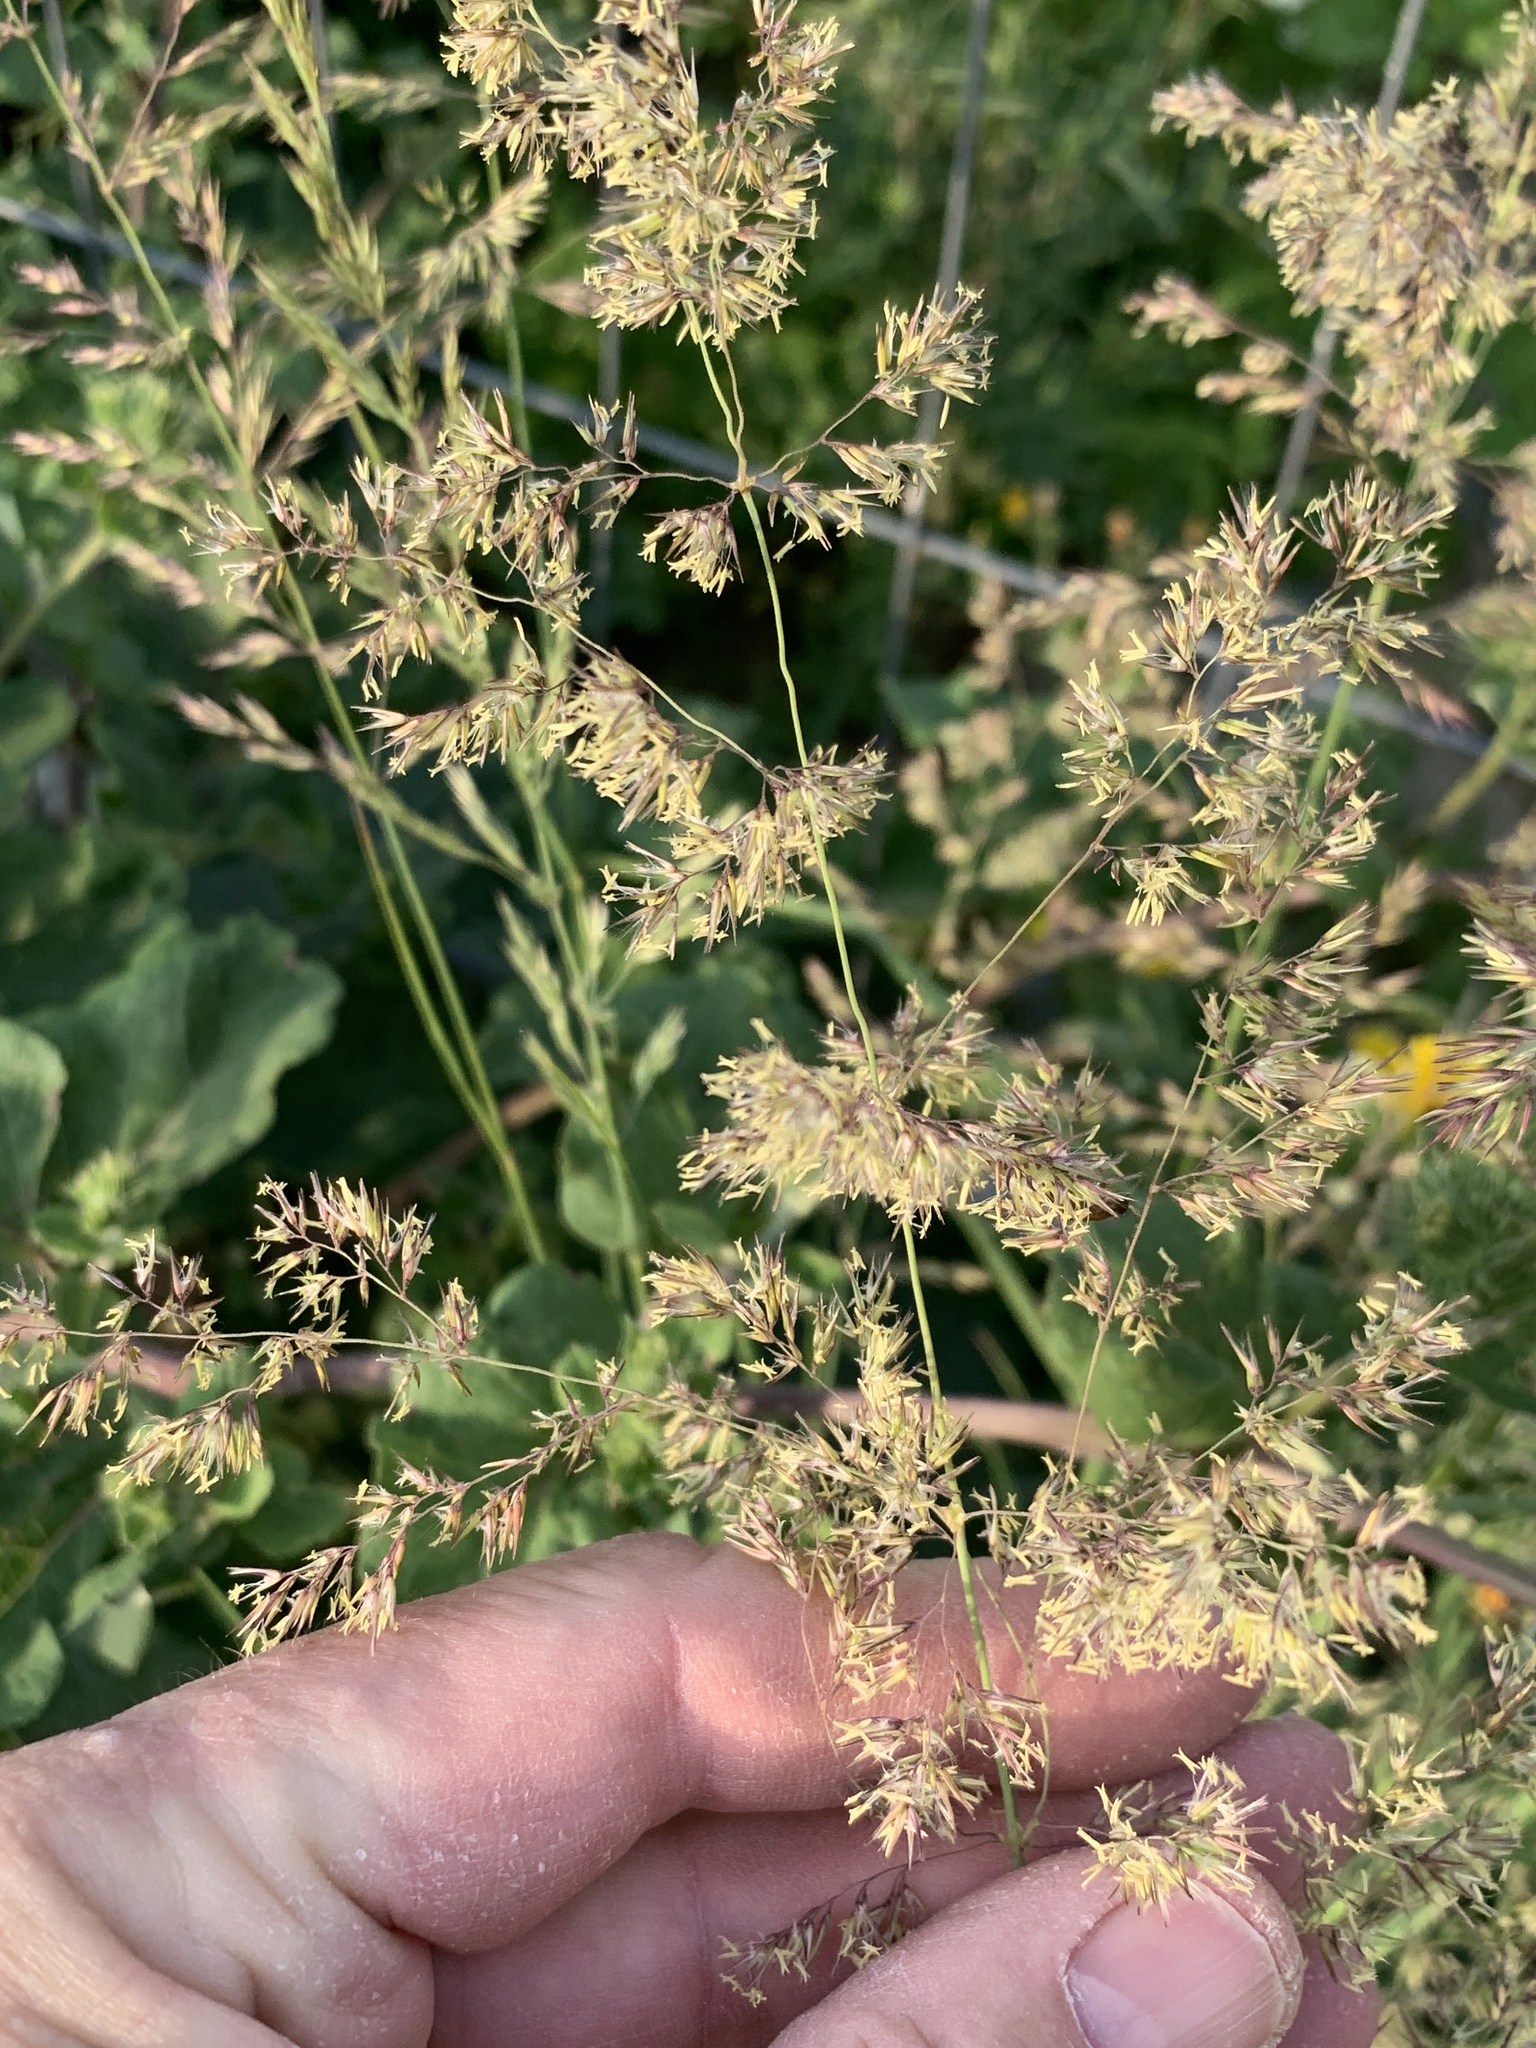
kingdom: Plantae
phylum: Tracheophyta
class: Liliopsida
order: Poales
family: Poaceae
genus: Calamagrostis
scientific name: Calamagrostis epigejos
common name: Wood small-reed
